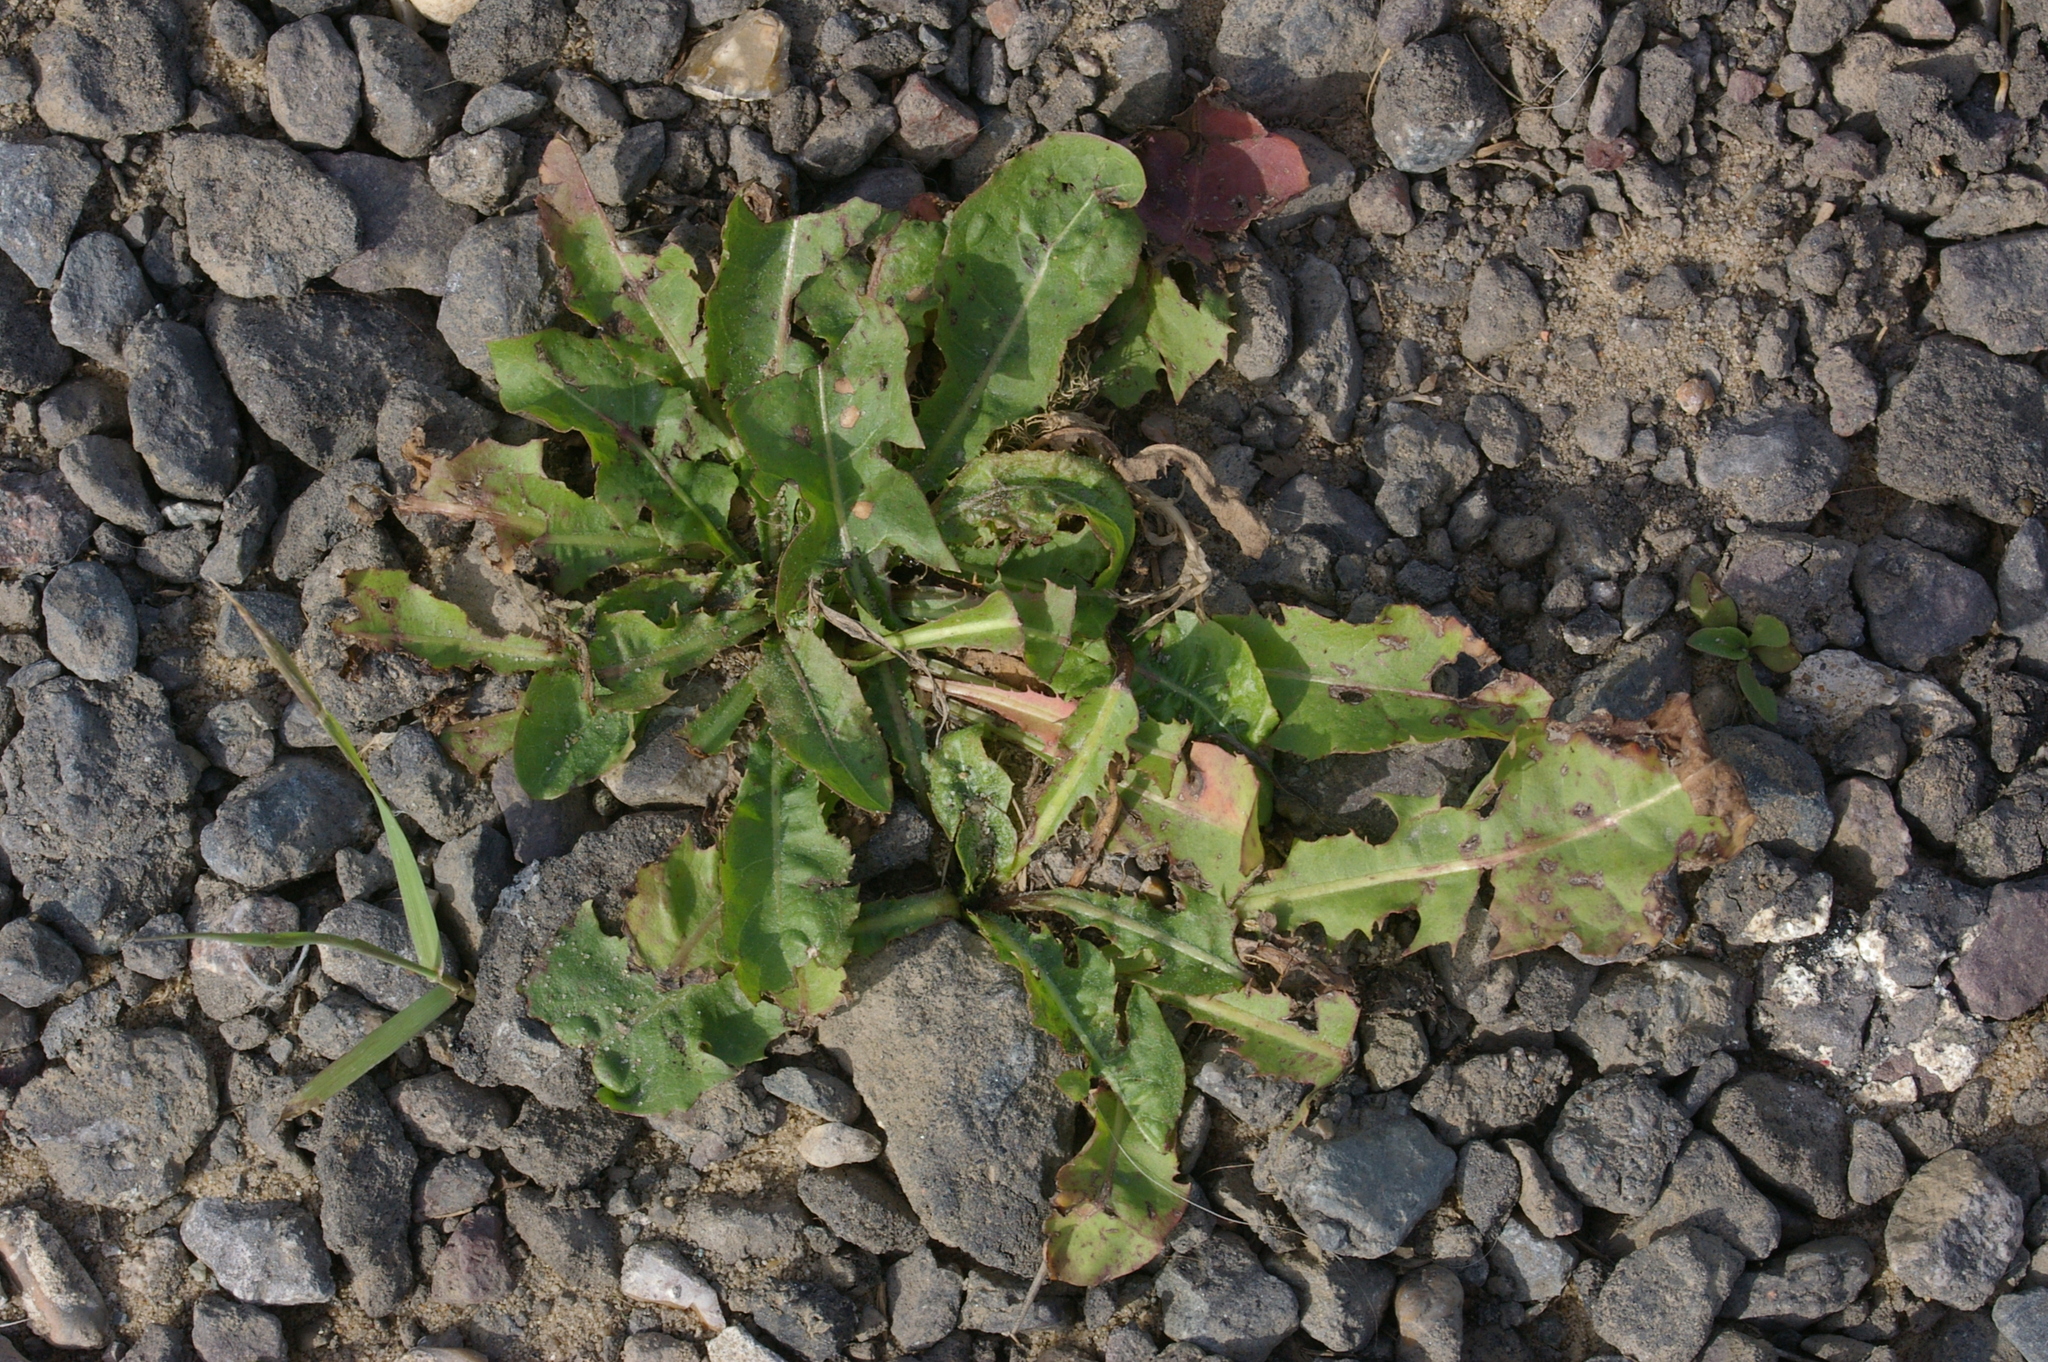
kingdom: Plantae
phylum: Tracheophyta
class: Magnoliopsida
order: Asterales
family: Asteraceae
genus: Taraxacum
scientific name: Taraxacum officinale
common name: Common dandelion
